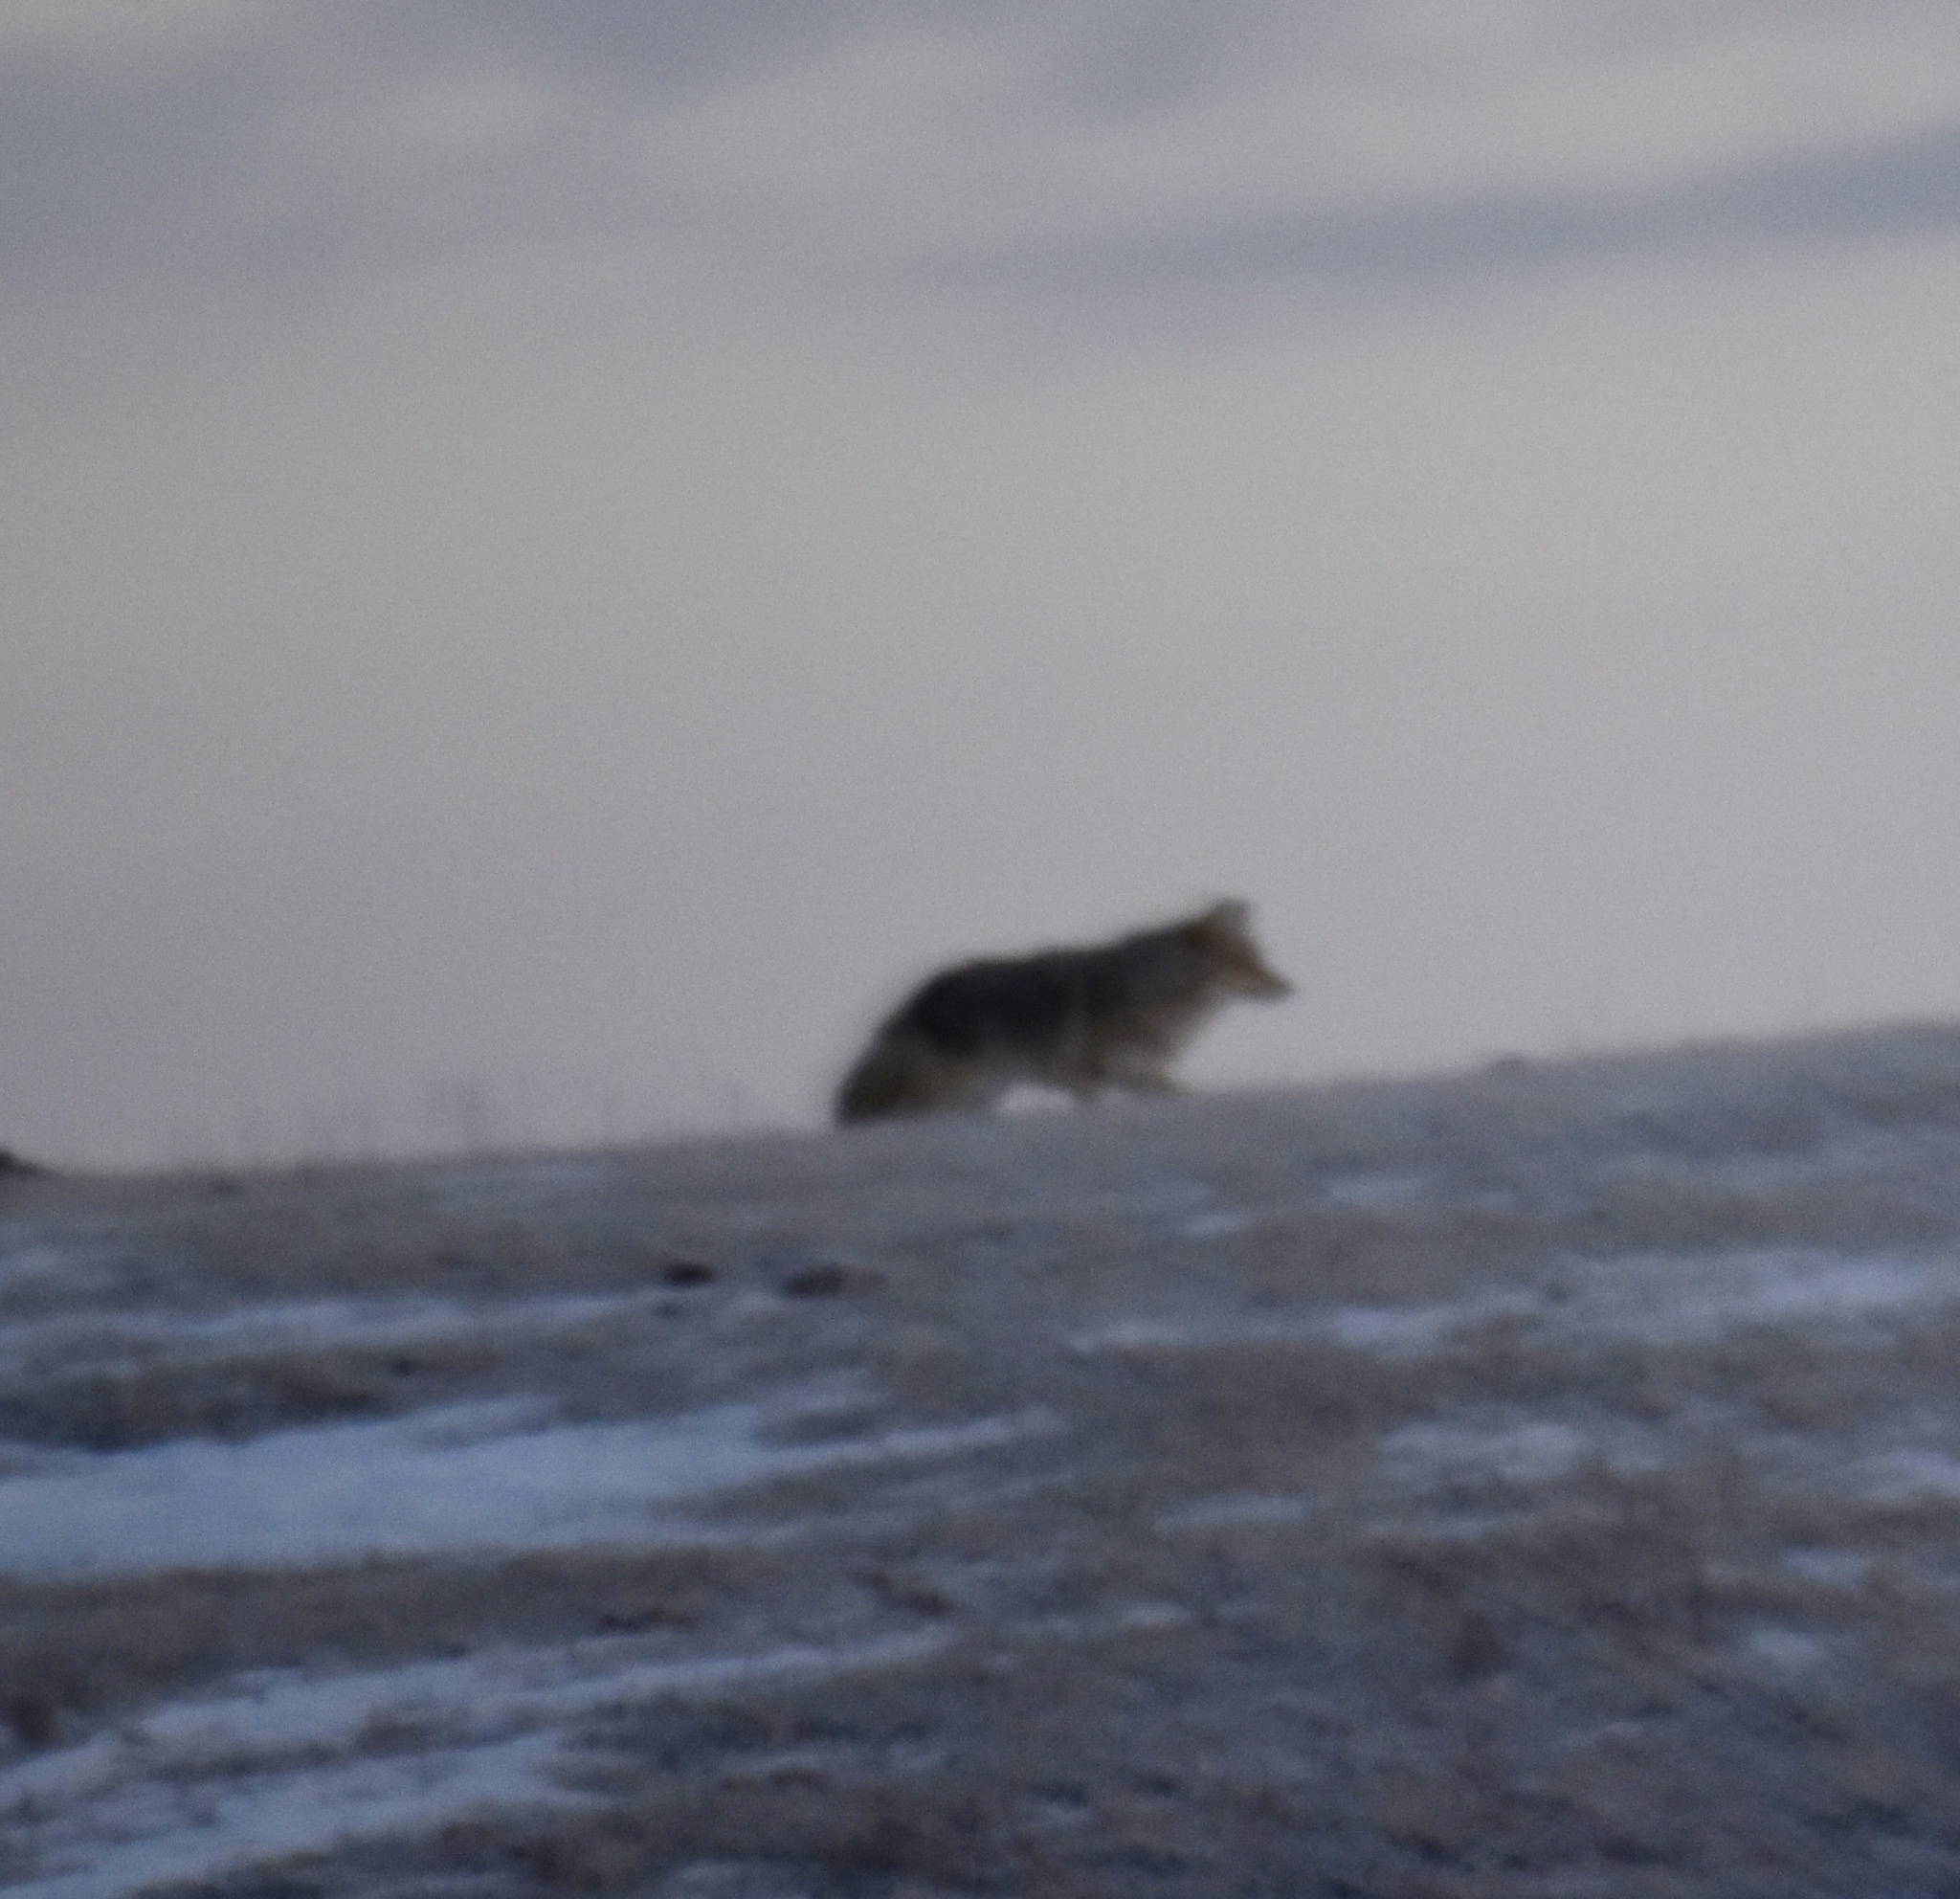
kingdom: Animalia
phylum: Chordata
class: Mammalia
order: Carnivora
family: Canidae
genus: Canis
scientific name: Canis latrans
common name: Coyote
